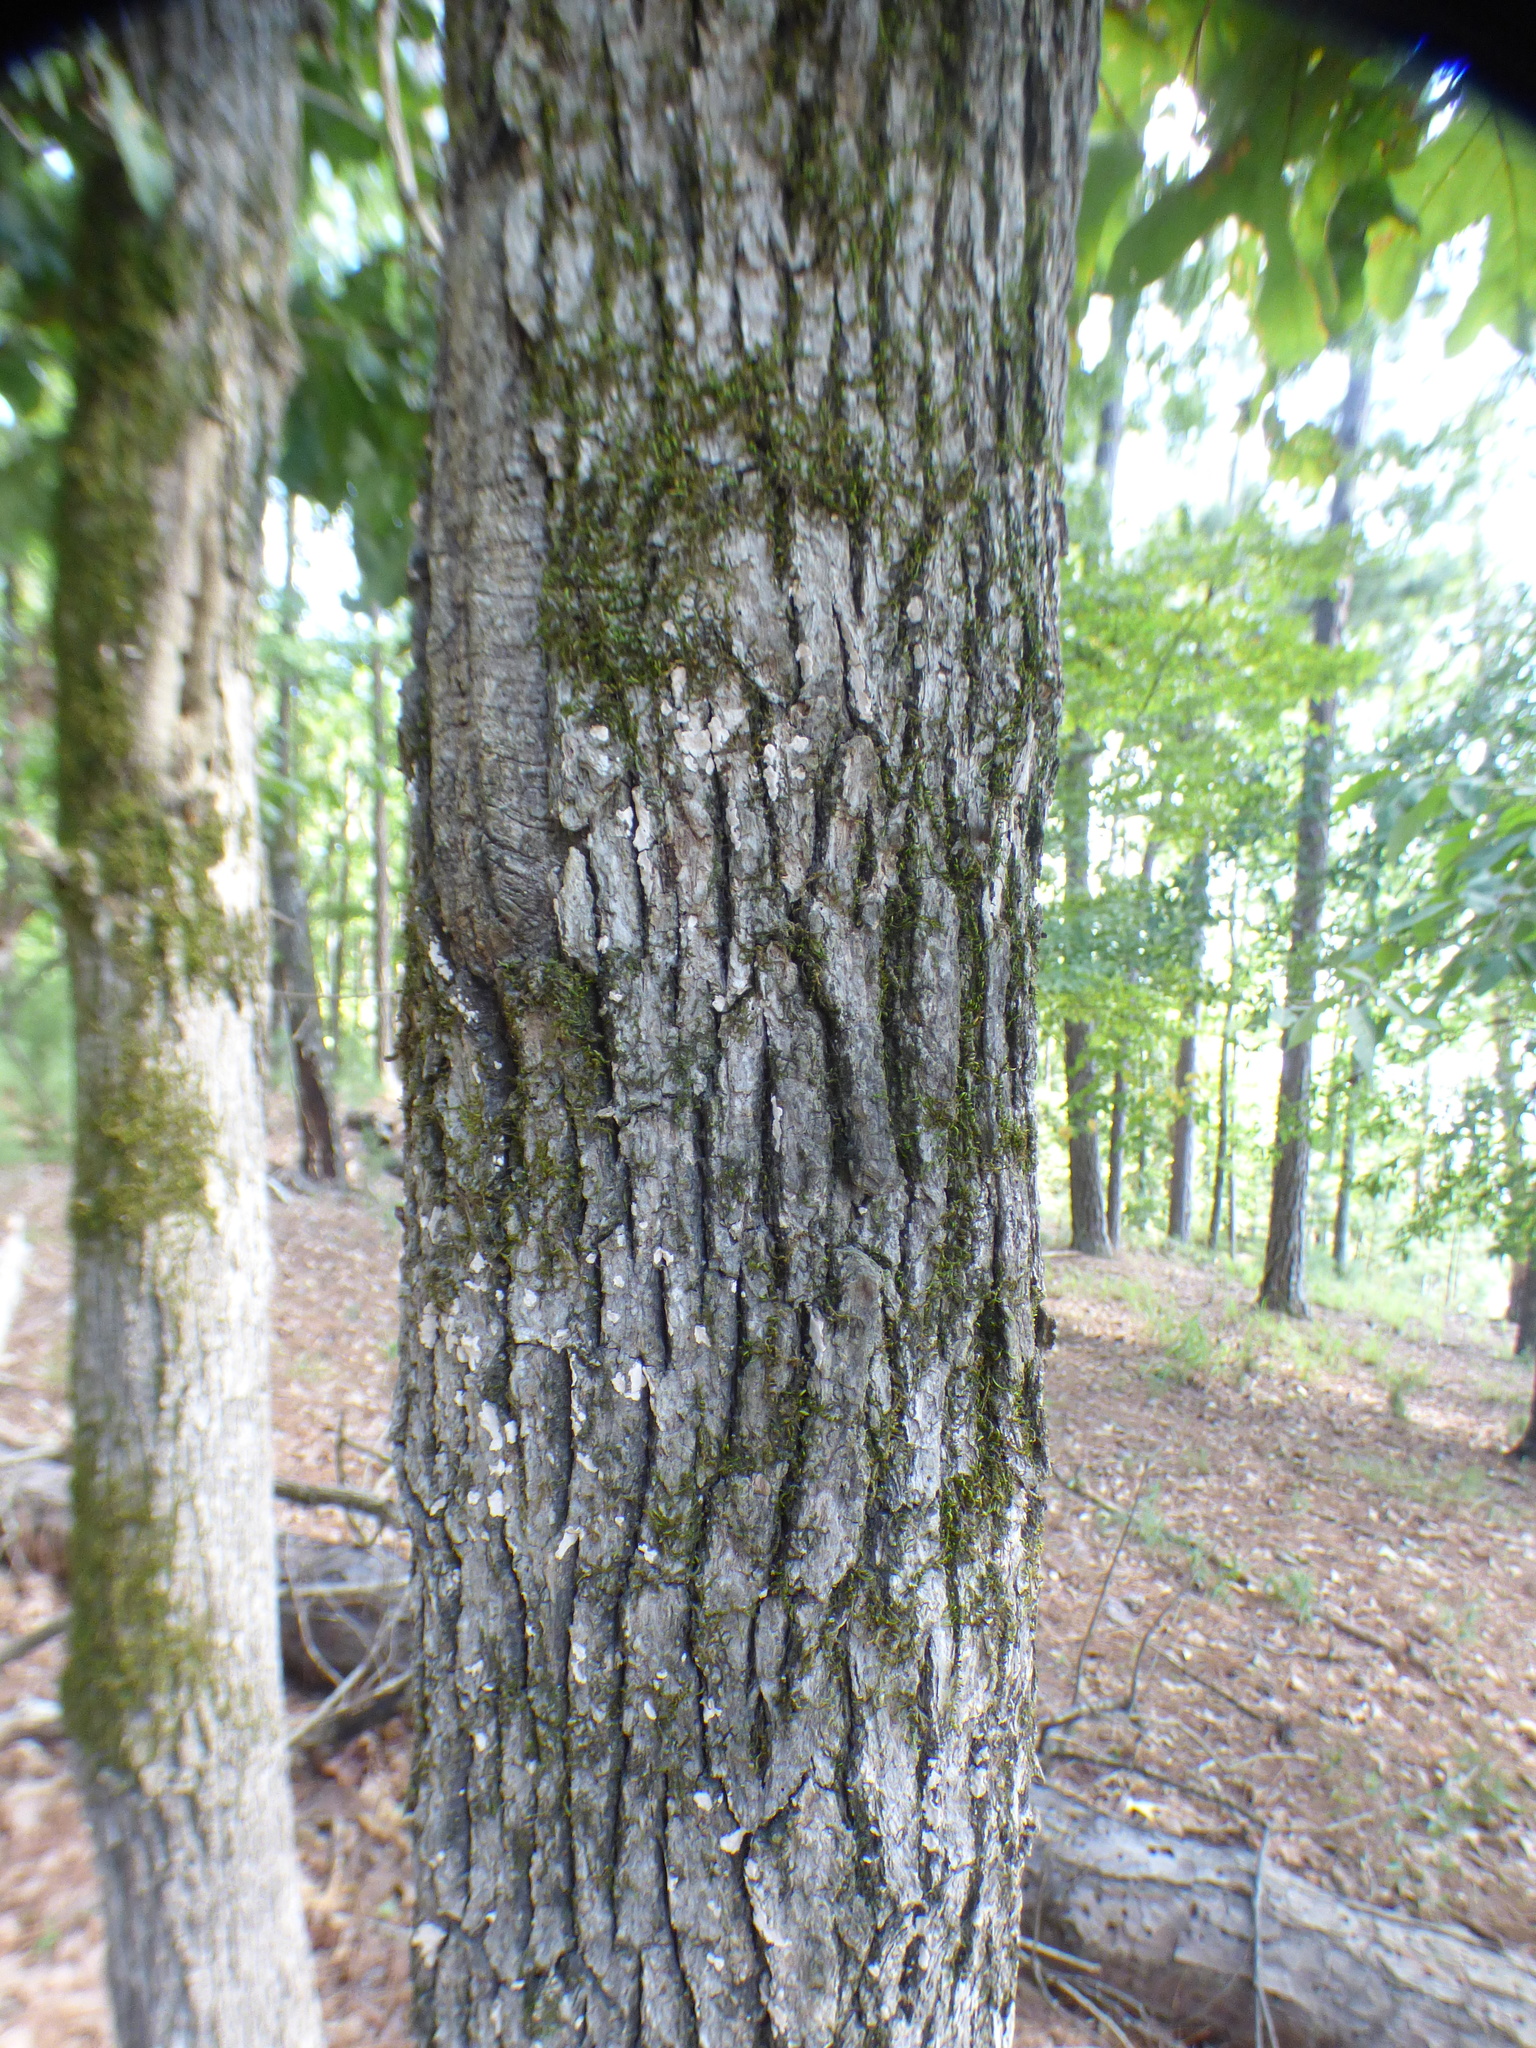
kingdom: Plantae
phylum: Tracheophyta
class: Magnoliopsida
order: Fagales
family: Fagaceae
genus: Quercus
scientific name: Quercus stellata
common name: Post oak
